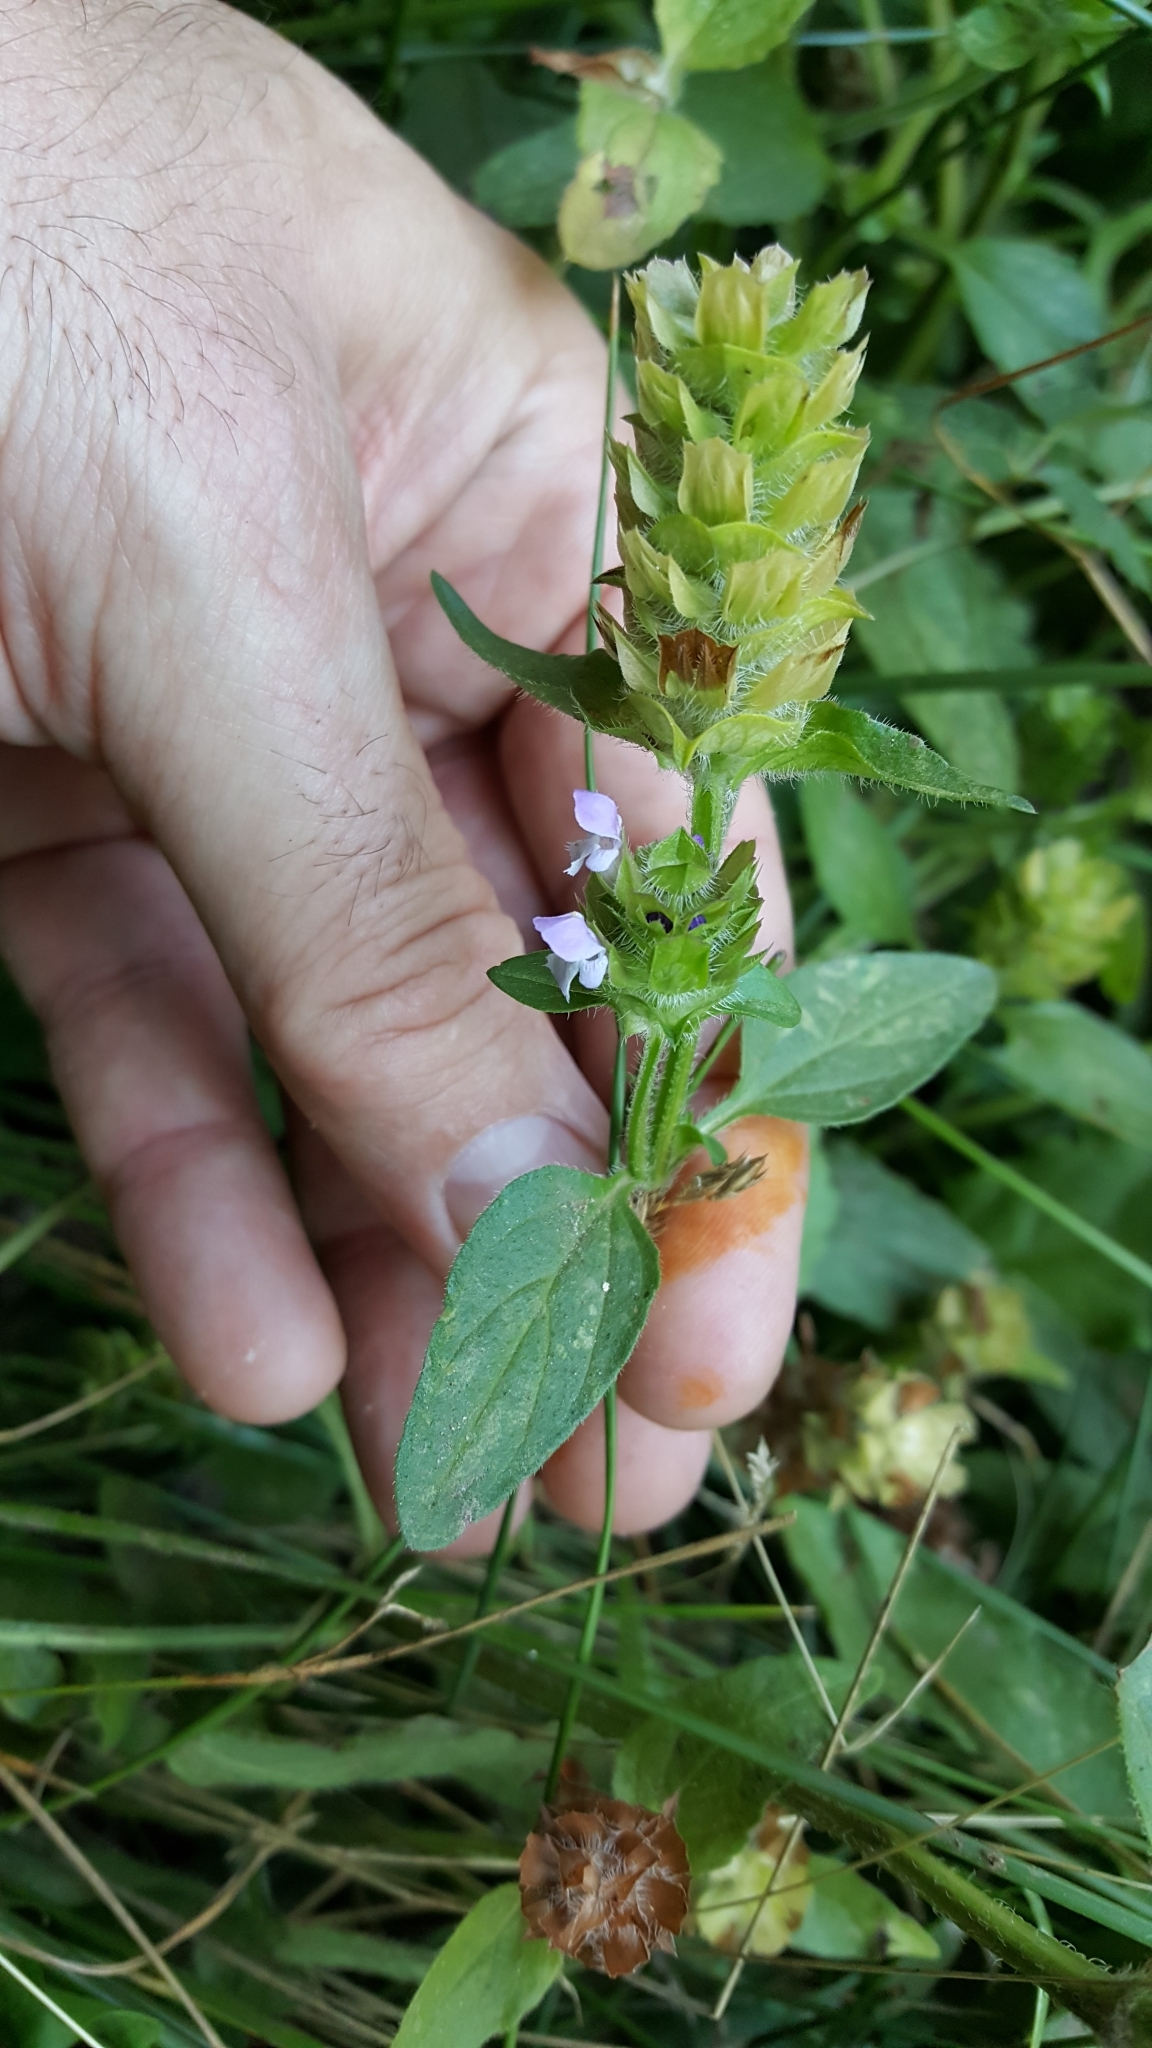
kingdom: Plantae
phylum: Tracheophyta
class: Magnoliopsida
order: Lamiales
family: Lamiaceae
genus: Prunella
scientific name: Prunella vulgaris
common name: Heal-all
